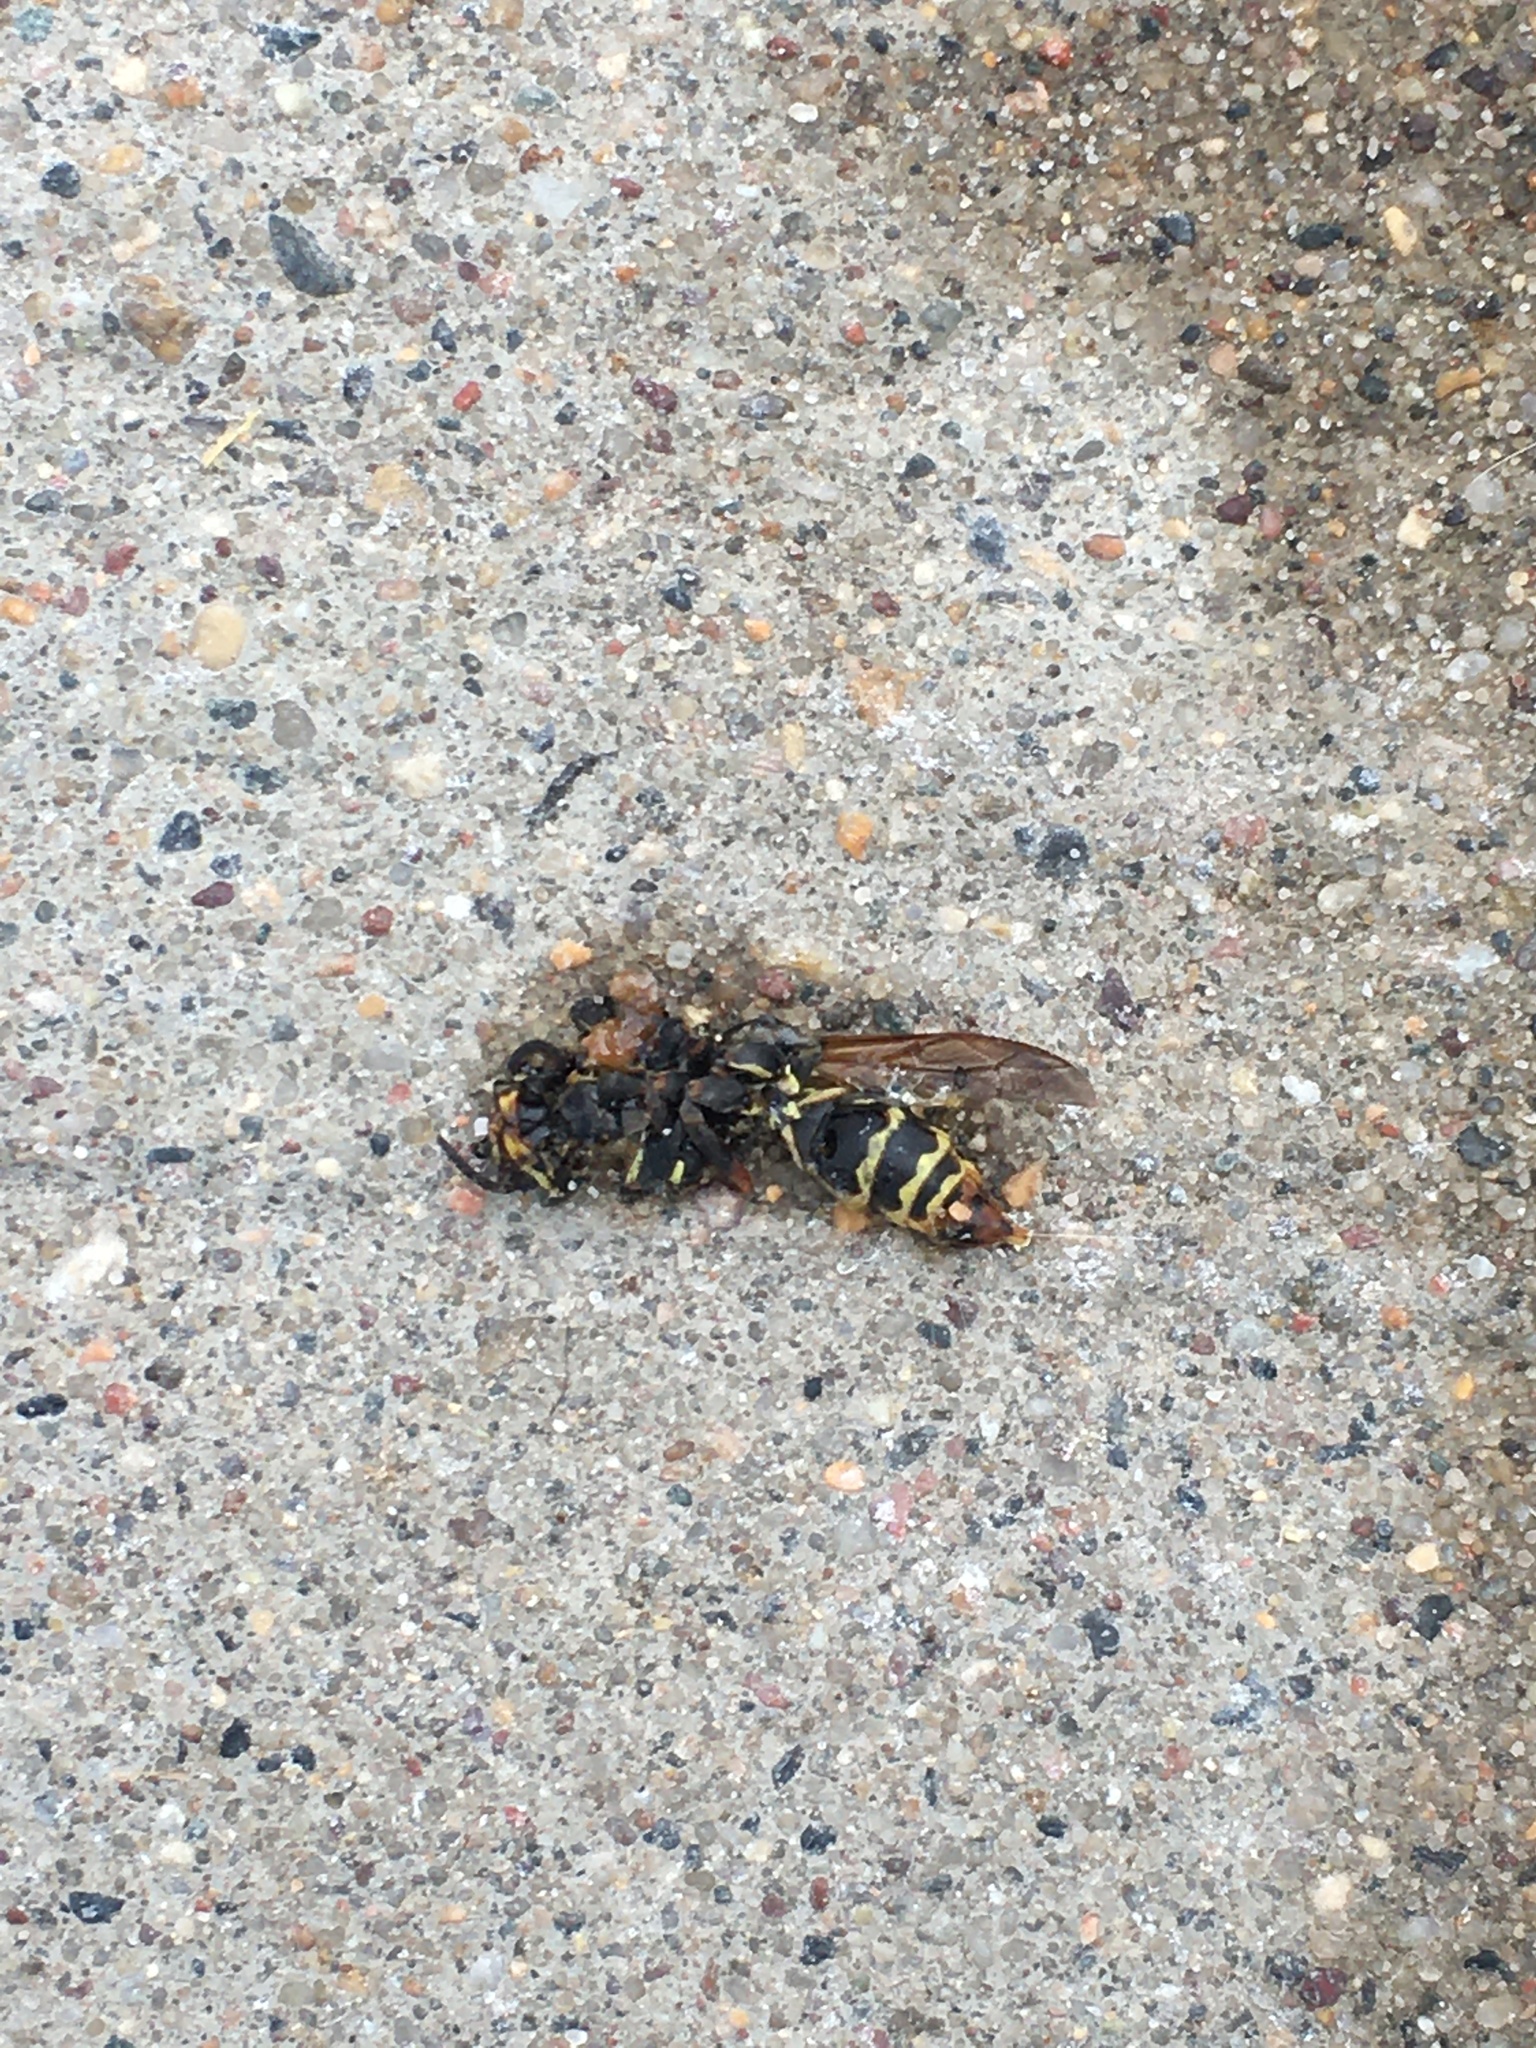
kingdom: Animalia
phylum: Arthropoda
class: Insecta
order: Hymenoptera
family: Eumenidae
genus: Polistes
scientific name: Polistes fuscatus
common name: Dark paper wasp
